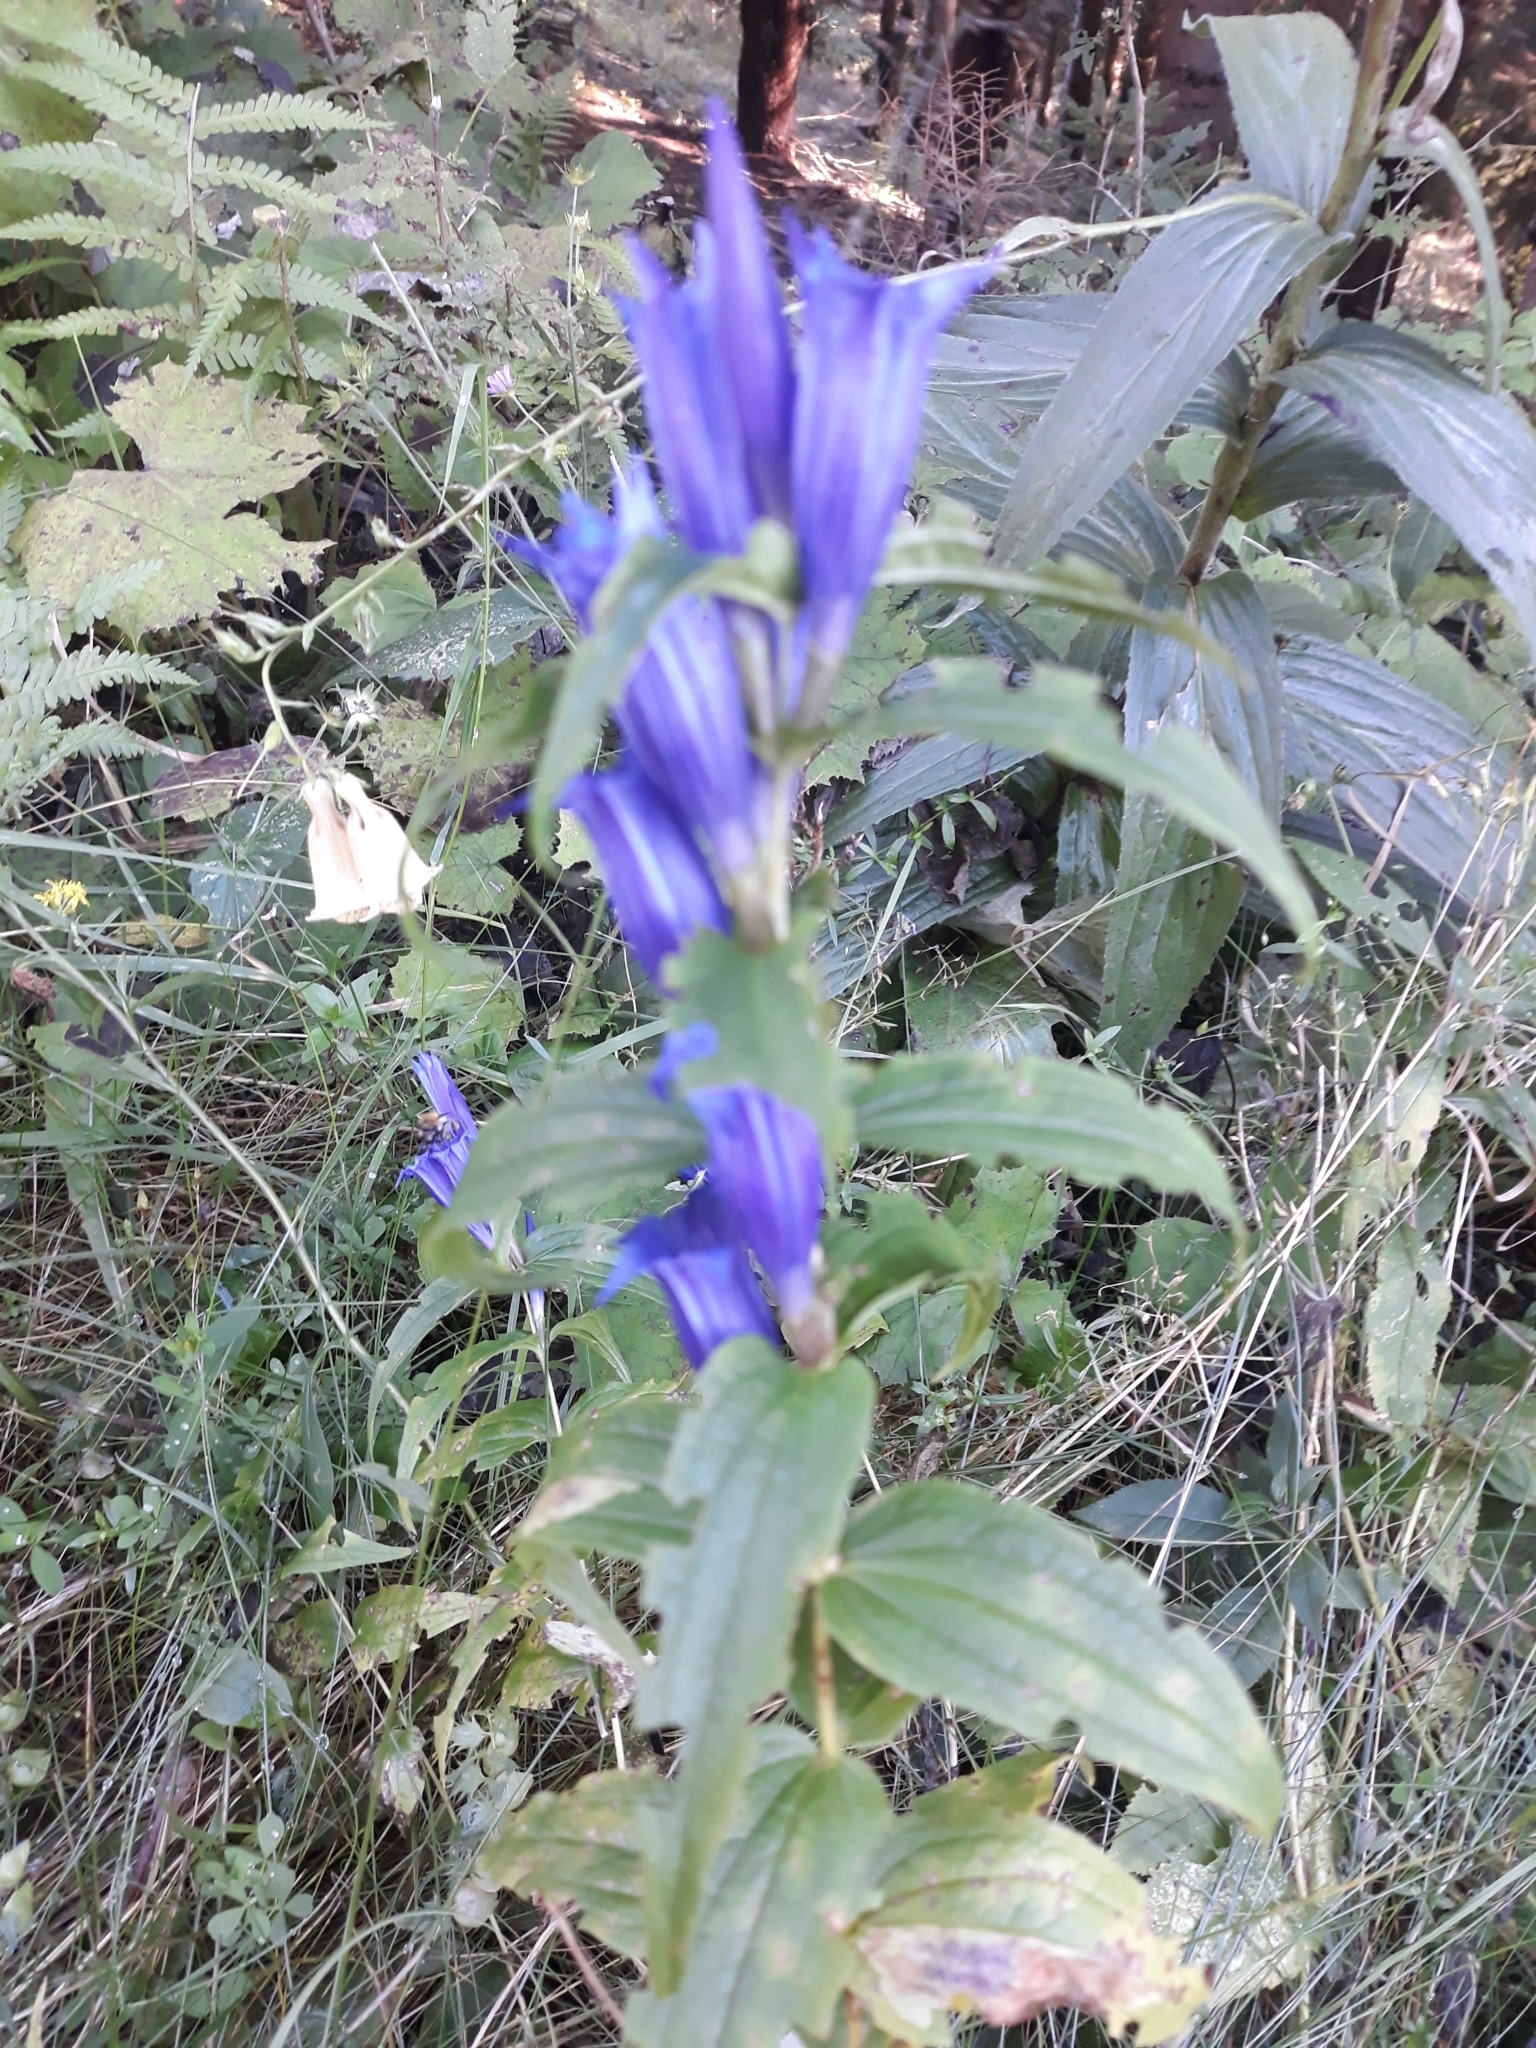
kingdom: Plantae
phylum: Tracheophyta
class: Magnoliopsida
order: Gentianales
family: Gentianaceae
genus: Gentiana
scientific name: Gentiana asclepiadea
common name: Willow gentian
